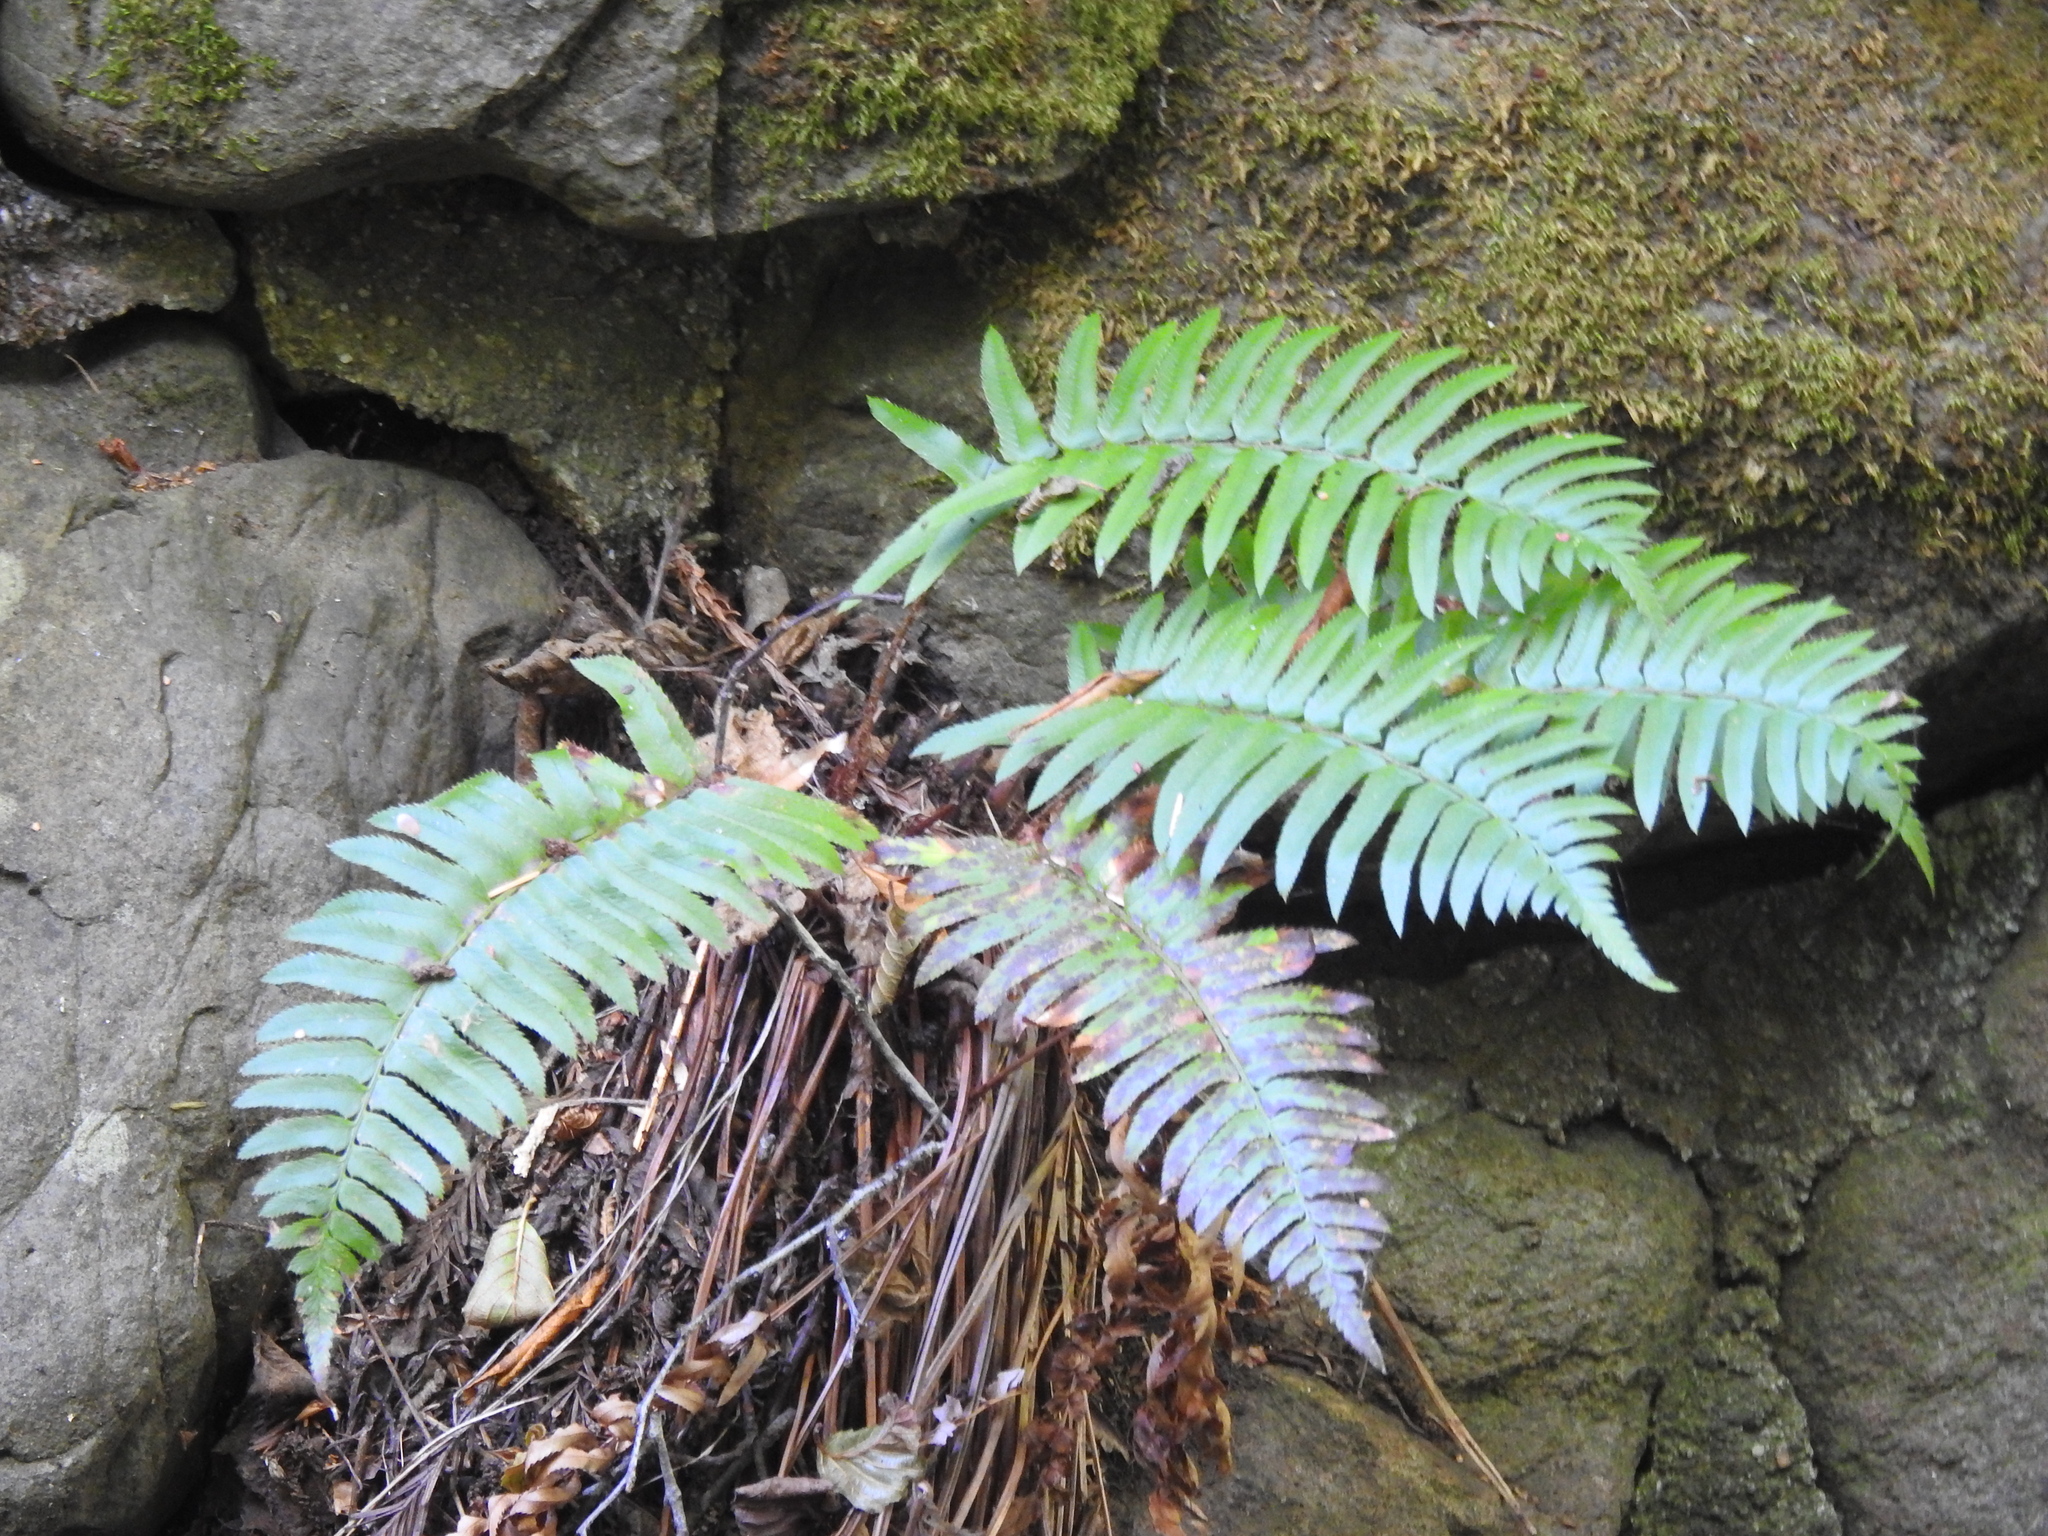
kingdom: Plantae
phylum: Tracheophyta
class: Polypodiopsida
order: Polypodiales
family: Dryopteridaceae
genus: Polystichum
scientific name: Polystichum munitum
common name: Western sword-fern
